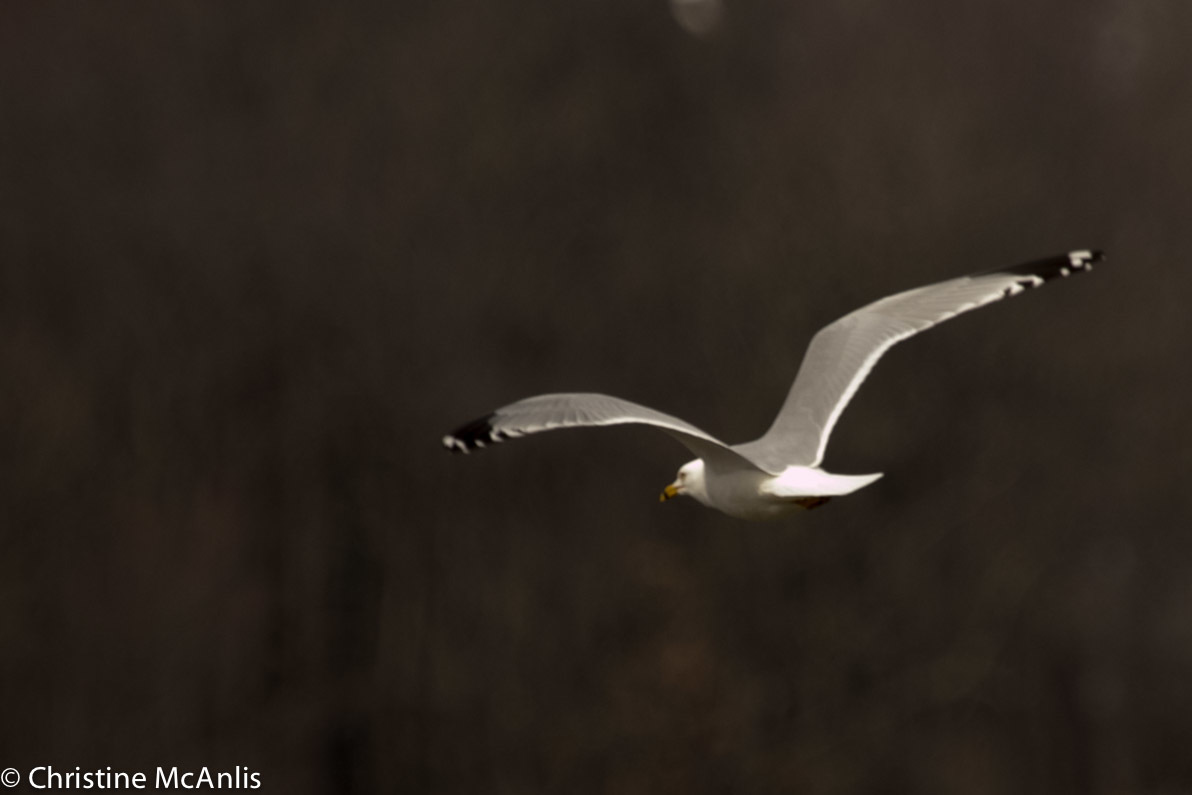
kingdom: Animalia
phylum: Chordata
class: Aves
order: Charadriiformes
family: Laridae
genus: Larus
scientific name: Larus delawarensis
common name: Ring-billed gull
